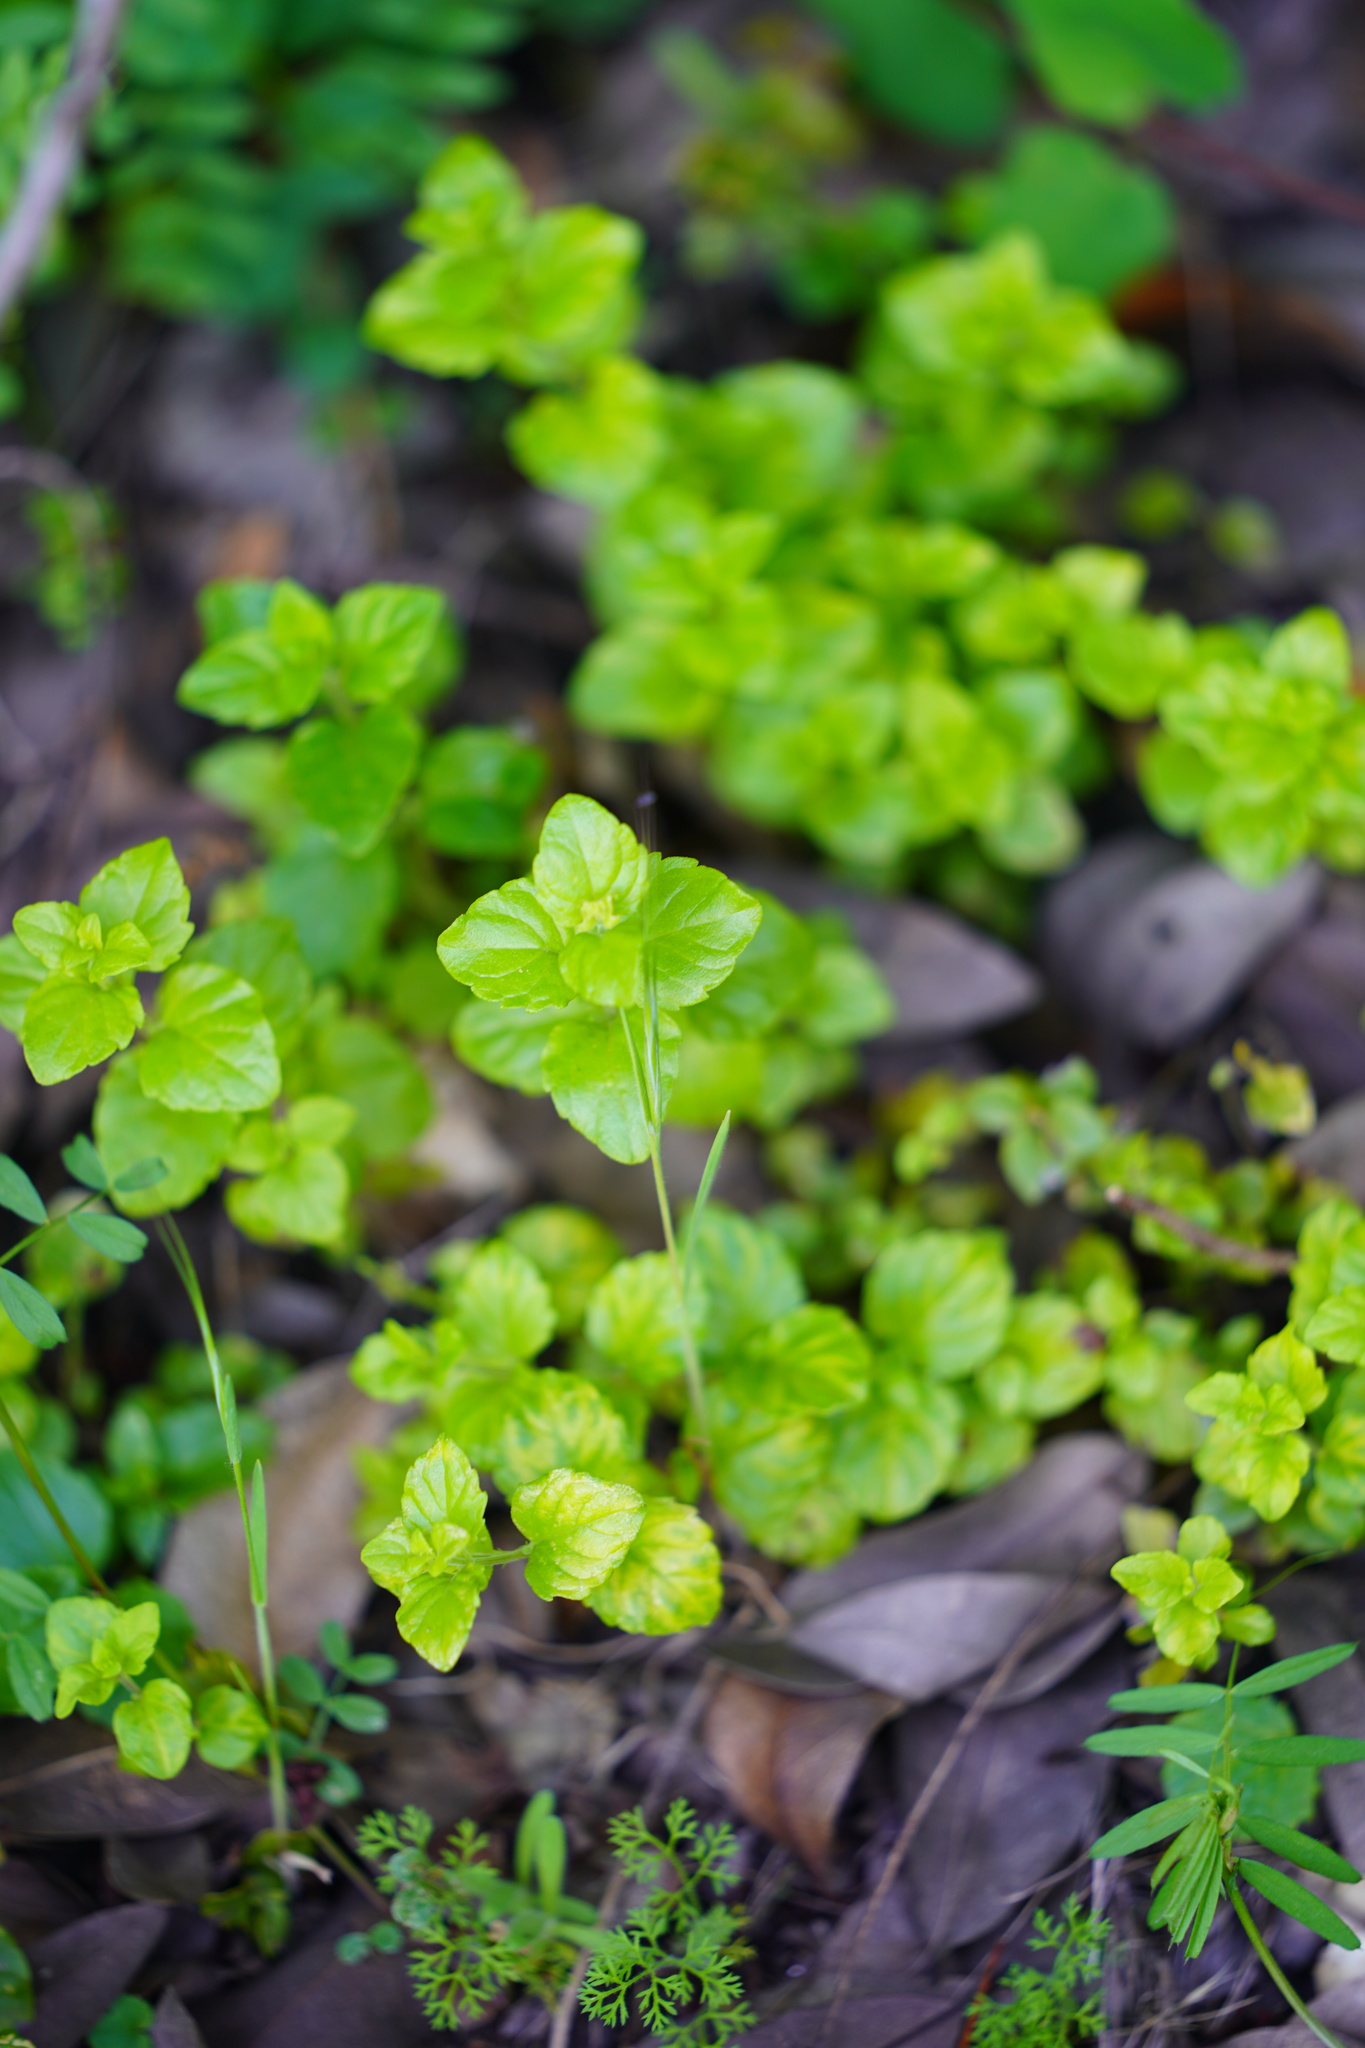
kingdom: Plantae
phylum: Tracheophyta
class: Magnoliopsida
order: Lamiales
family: Lamiaceae
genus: Micromeria
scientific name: Micromeria douglasii
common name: Yerba buena
